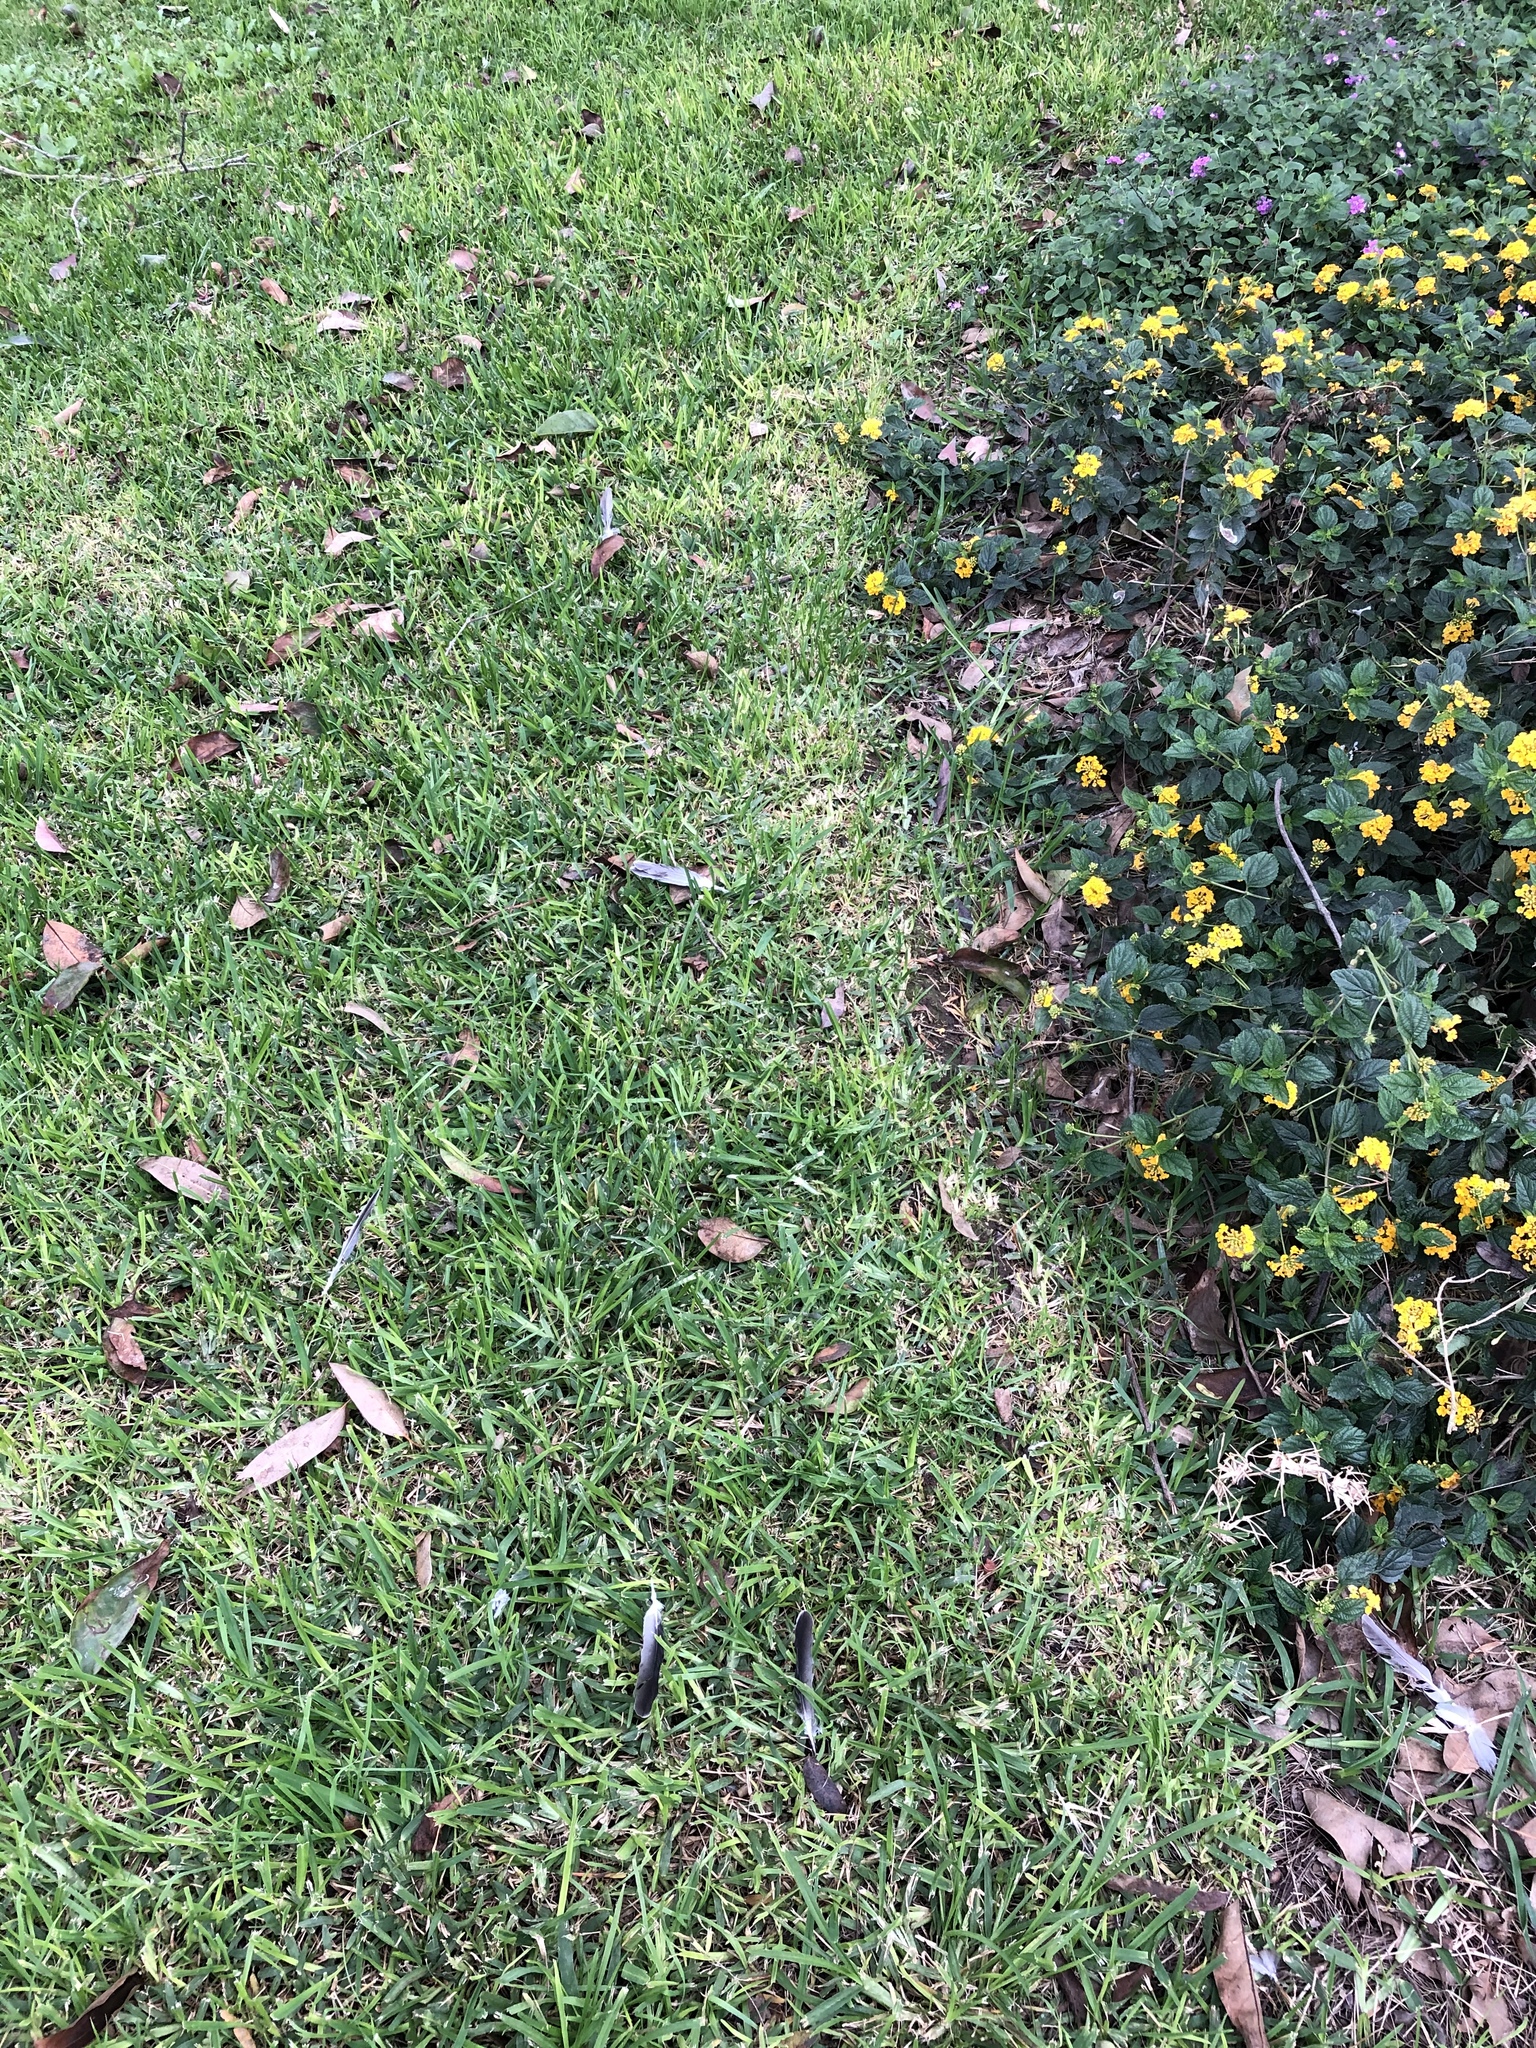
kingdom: Animalia
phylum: Chordata
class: Aves
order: Columbiformes
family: Columbidae
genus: Zenaida
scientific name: Zenaida meloda
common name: West peruvian dove
